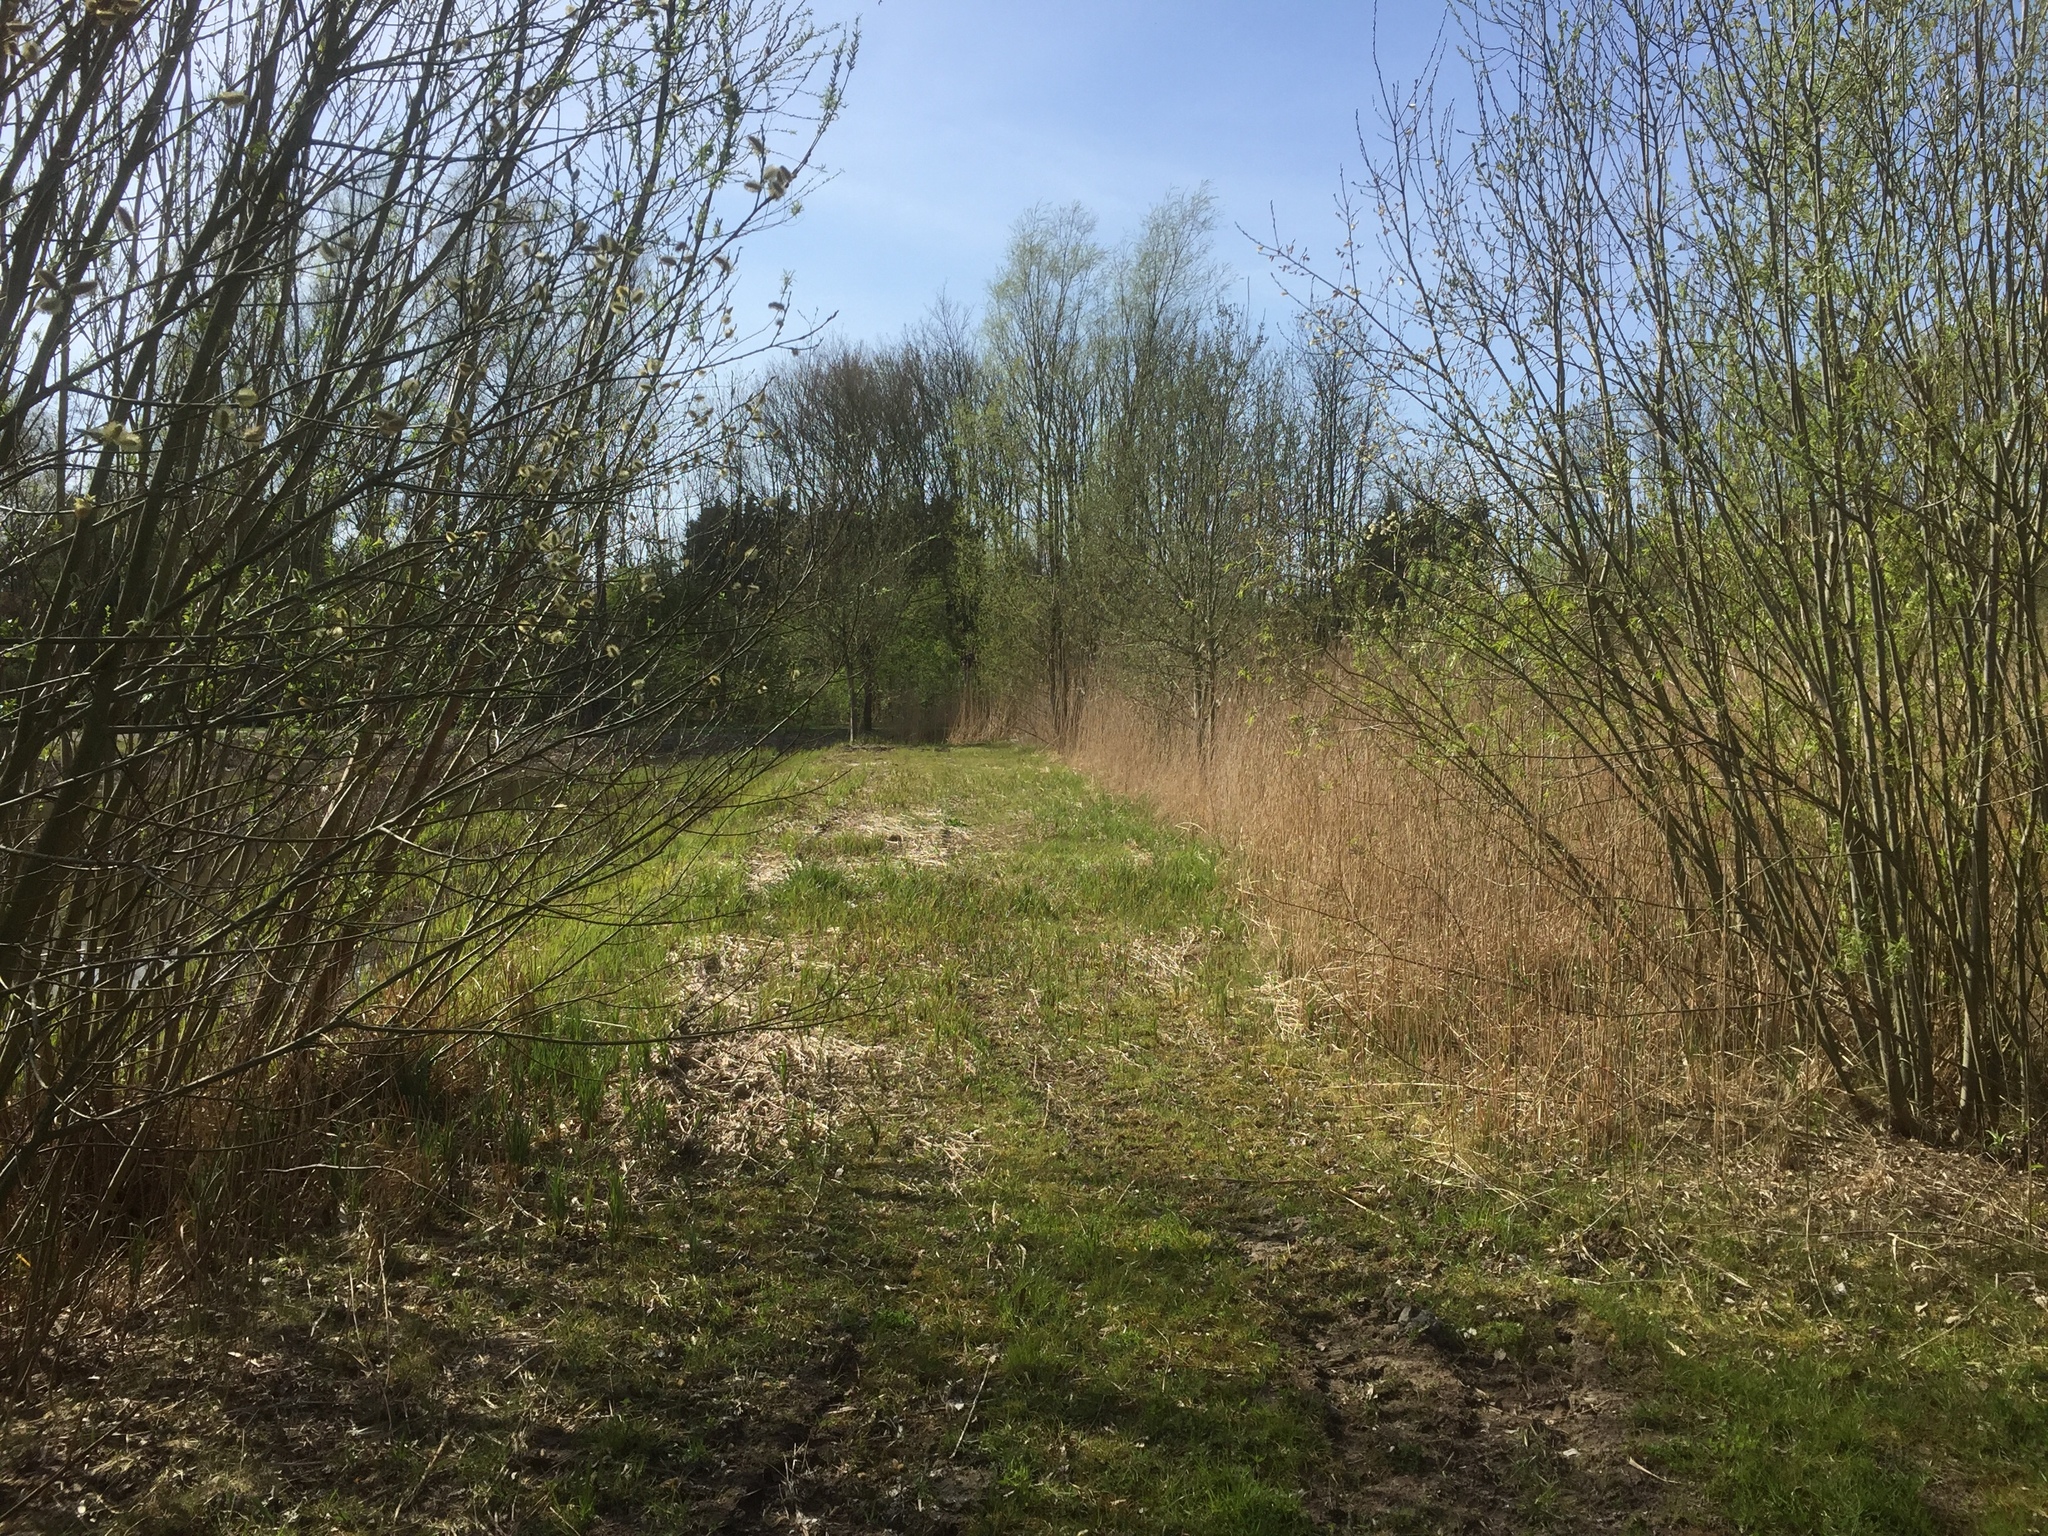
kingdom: Plantae
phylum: Tracheophyta
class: Liliopsida
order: Poales
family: Poaceae
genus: Phragmites
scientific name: Phragmites australis
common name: Common reed
